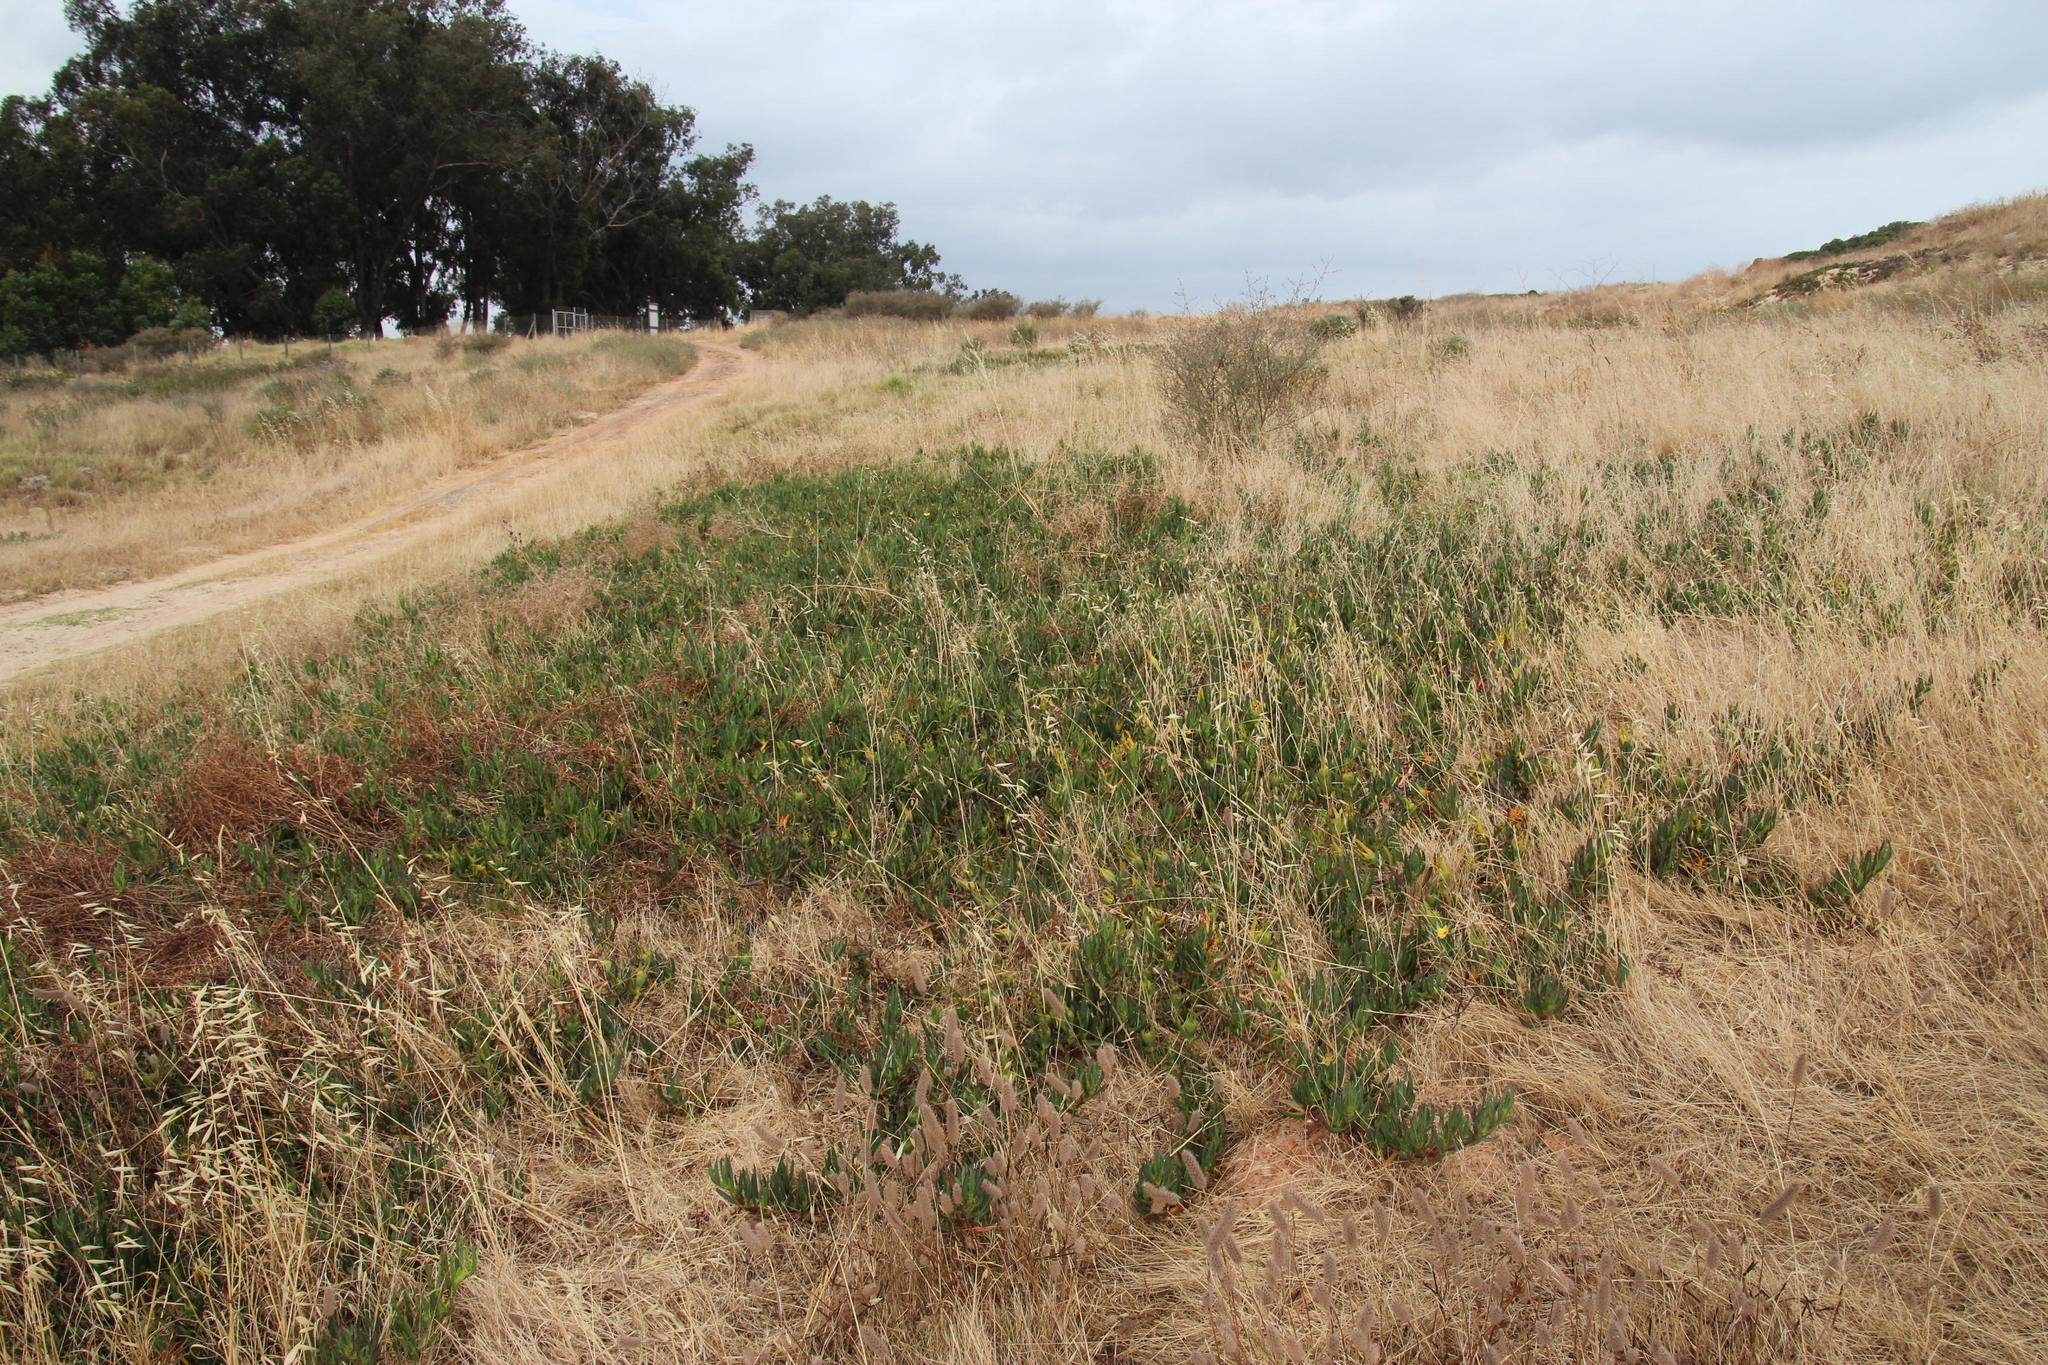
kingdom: Plantae
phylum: Tracheophyta
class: Magnoliopsida
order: Caryophyllales
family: Aizoaceae
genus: Carpobrotus
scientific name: Carpobrotus edulis
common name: Hottentot-fig
